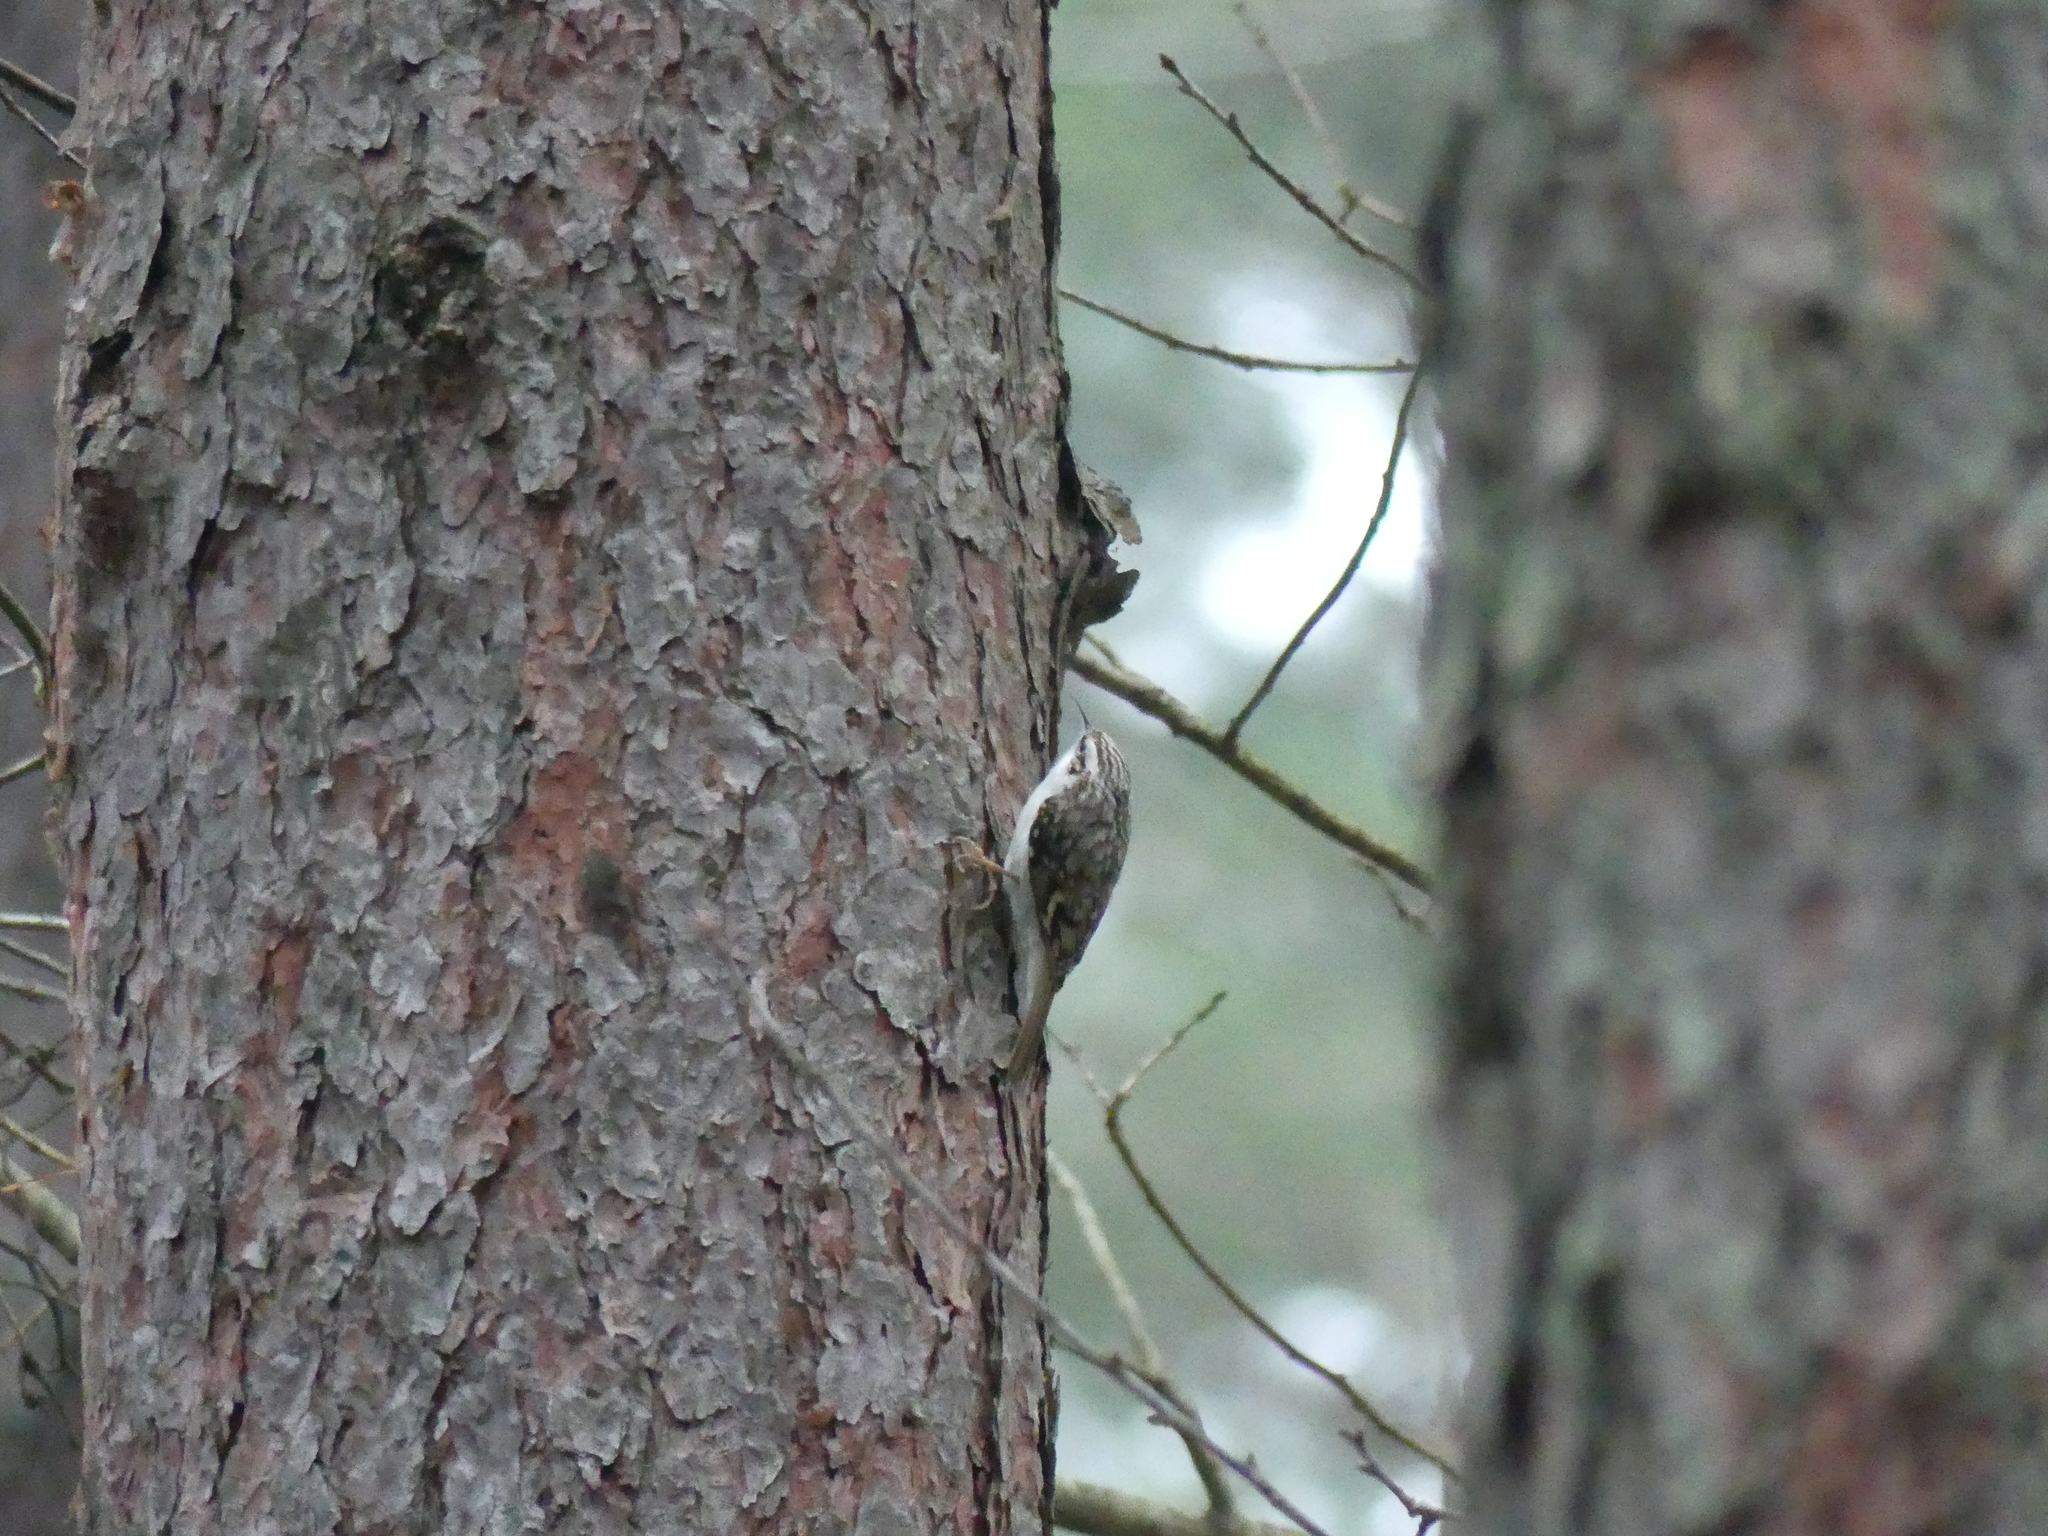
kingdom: Animalia
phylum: Chordata
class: Aves
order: Passeriformes
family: Certhiidae
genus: Certhia
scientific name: Certhia familiaris
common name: Eurasian treecreeper
